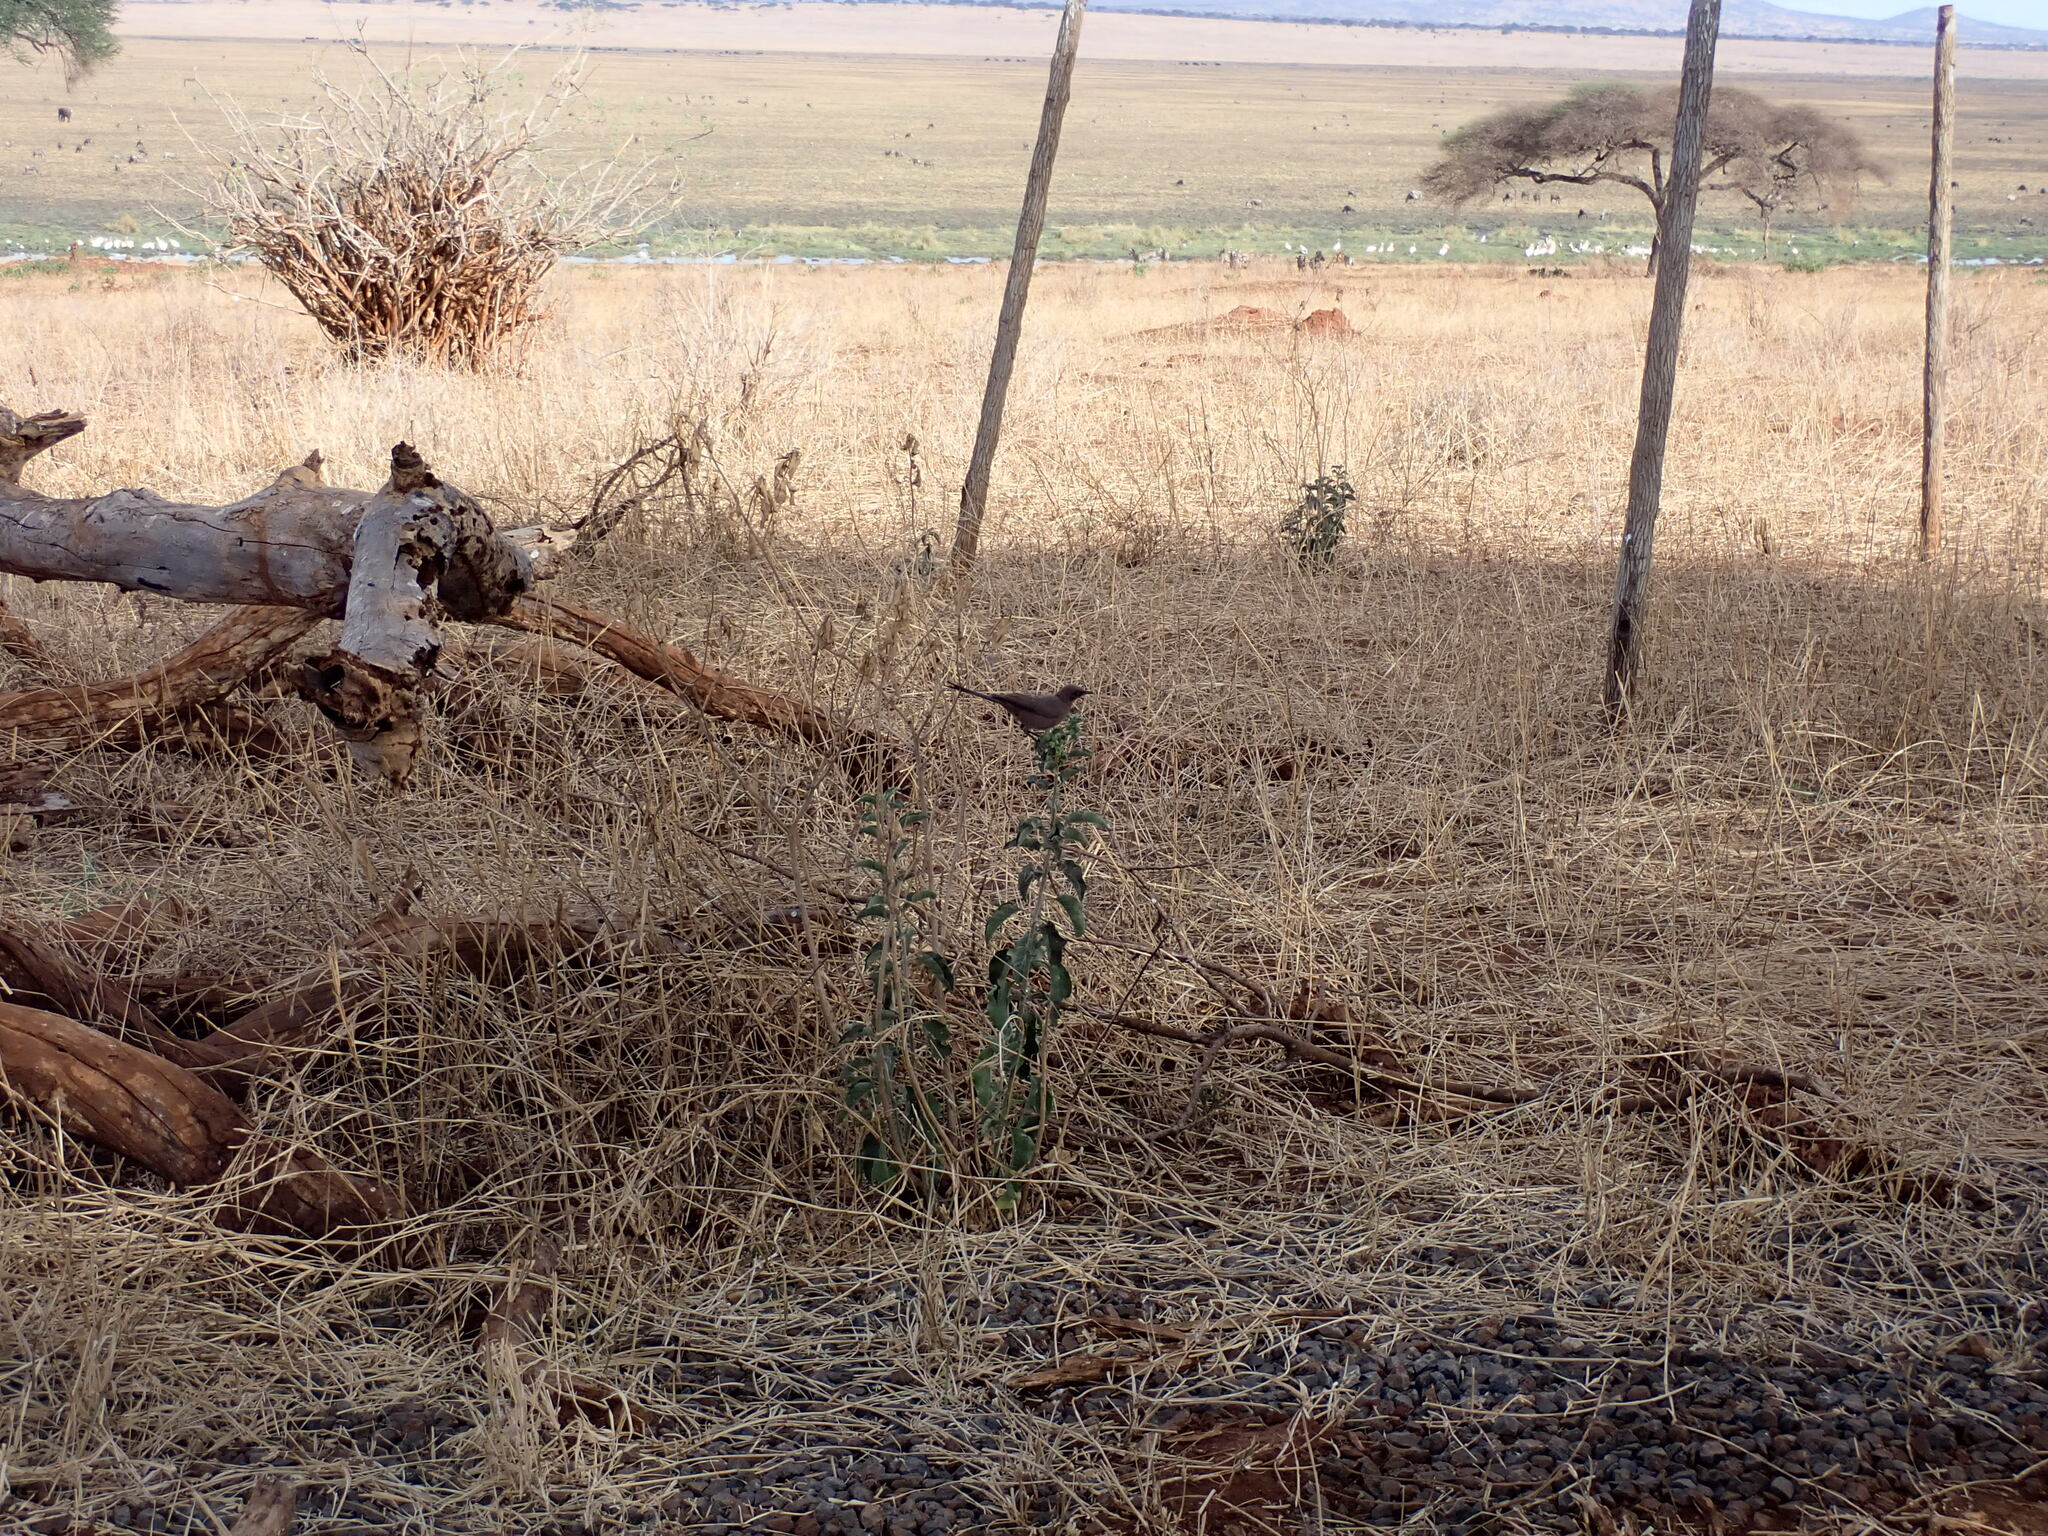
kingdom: Animalia
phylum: Chordata
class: Aves
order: Passeriformes
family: Sturnidae
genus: Lamprotornis
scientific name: Lamprotornis unicolor
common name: Ashy starling
